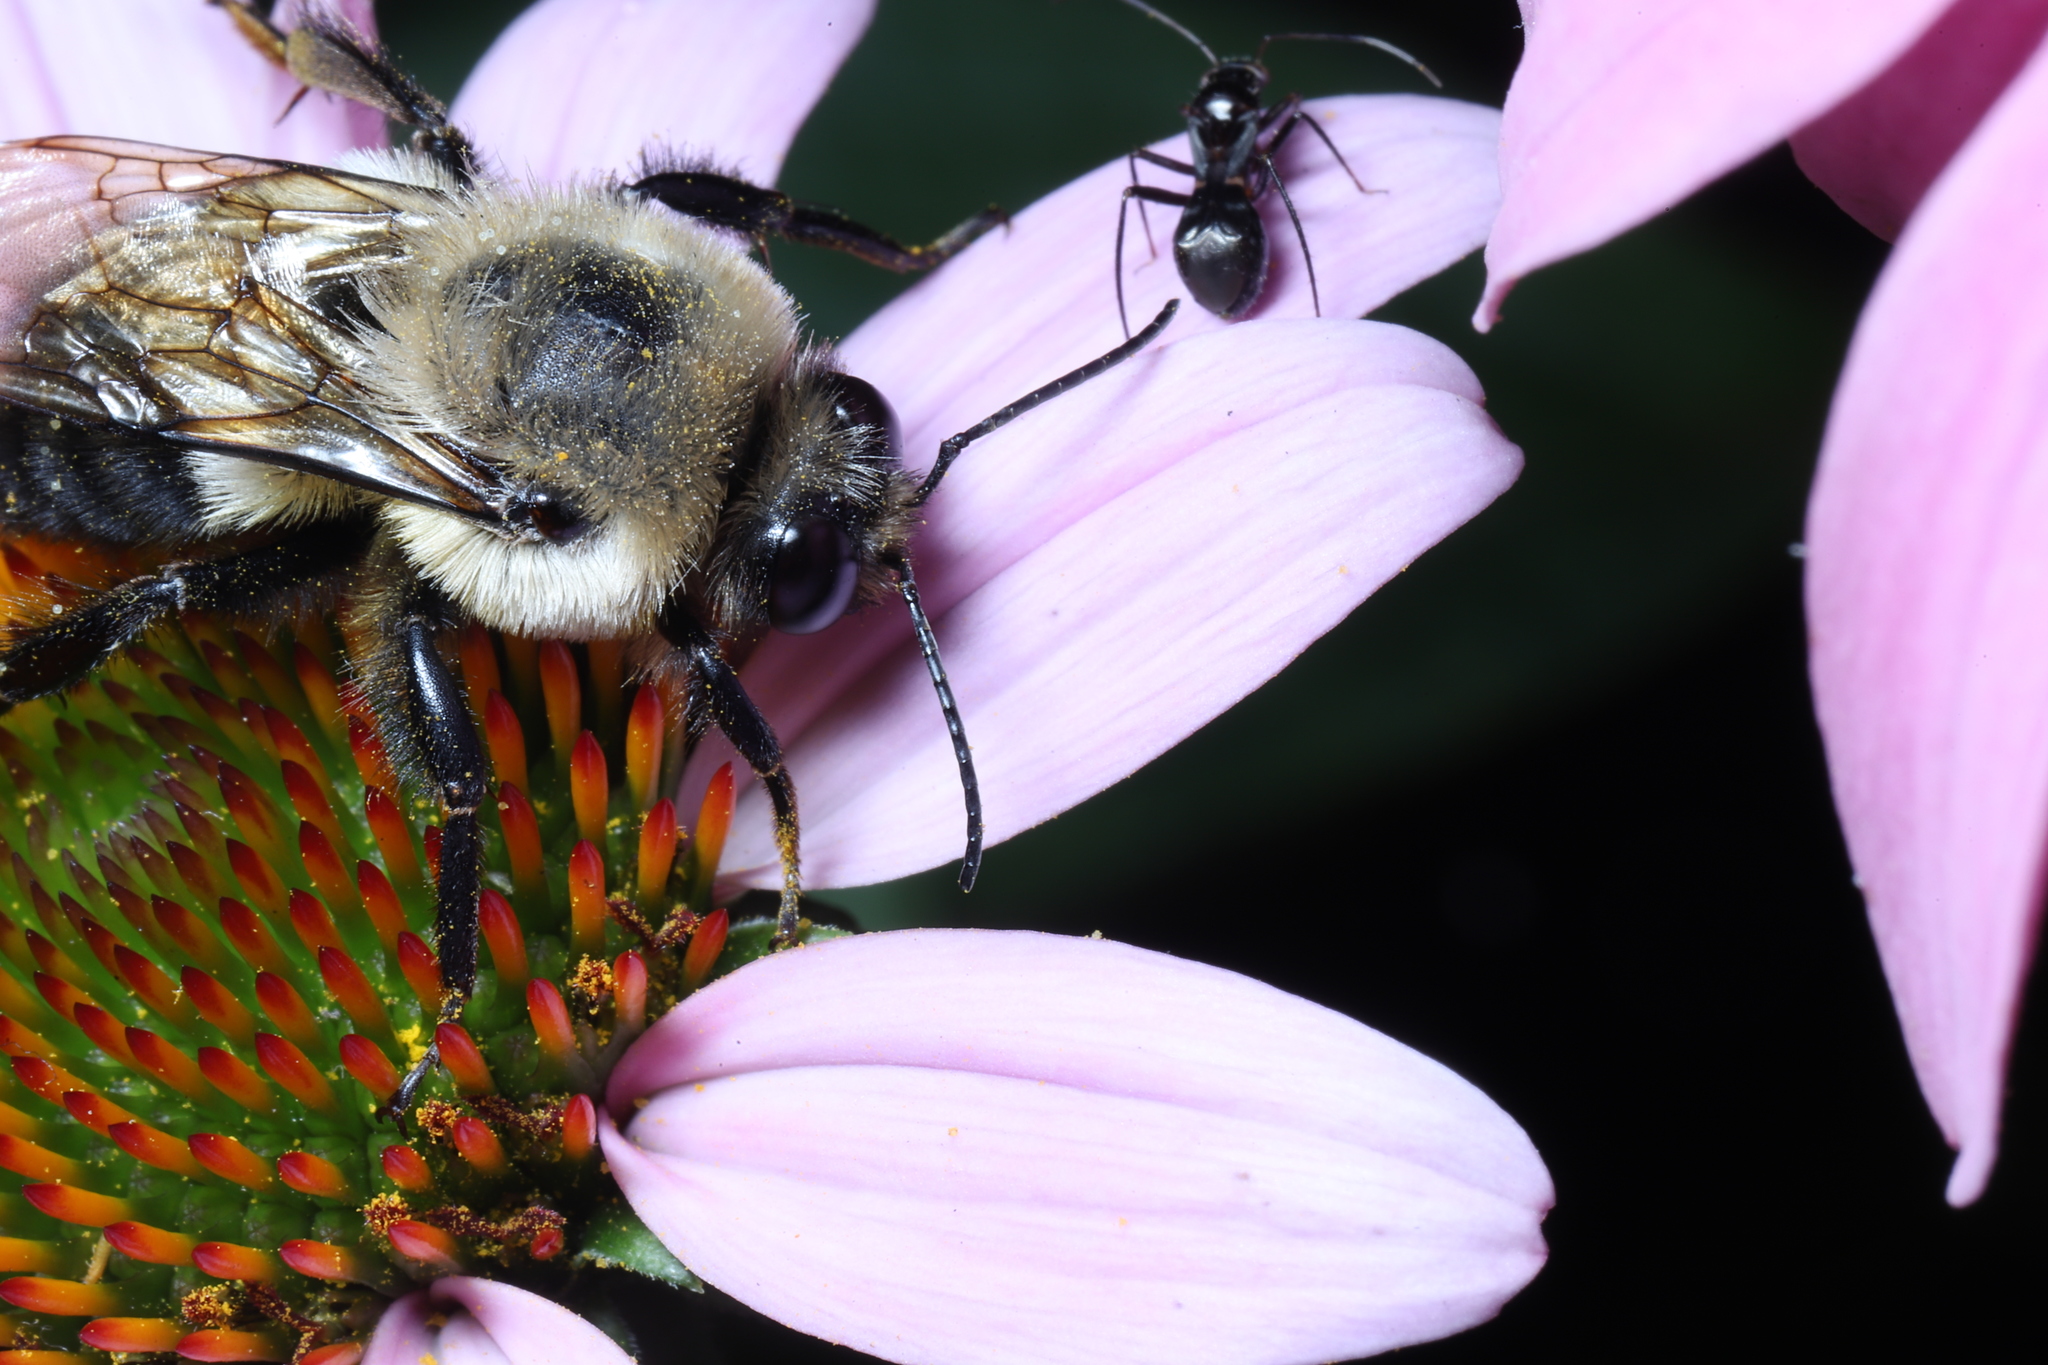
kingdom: Animalia
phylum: Arthropoda
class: Insecta
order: Hymenoptera
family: Apidae
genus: Bombus
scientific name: Bombus griseocollis
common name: Brown-belted bumble bee
